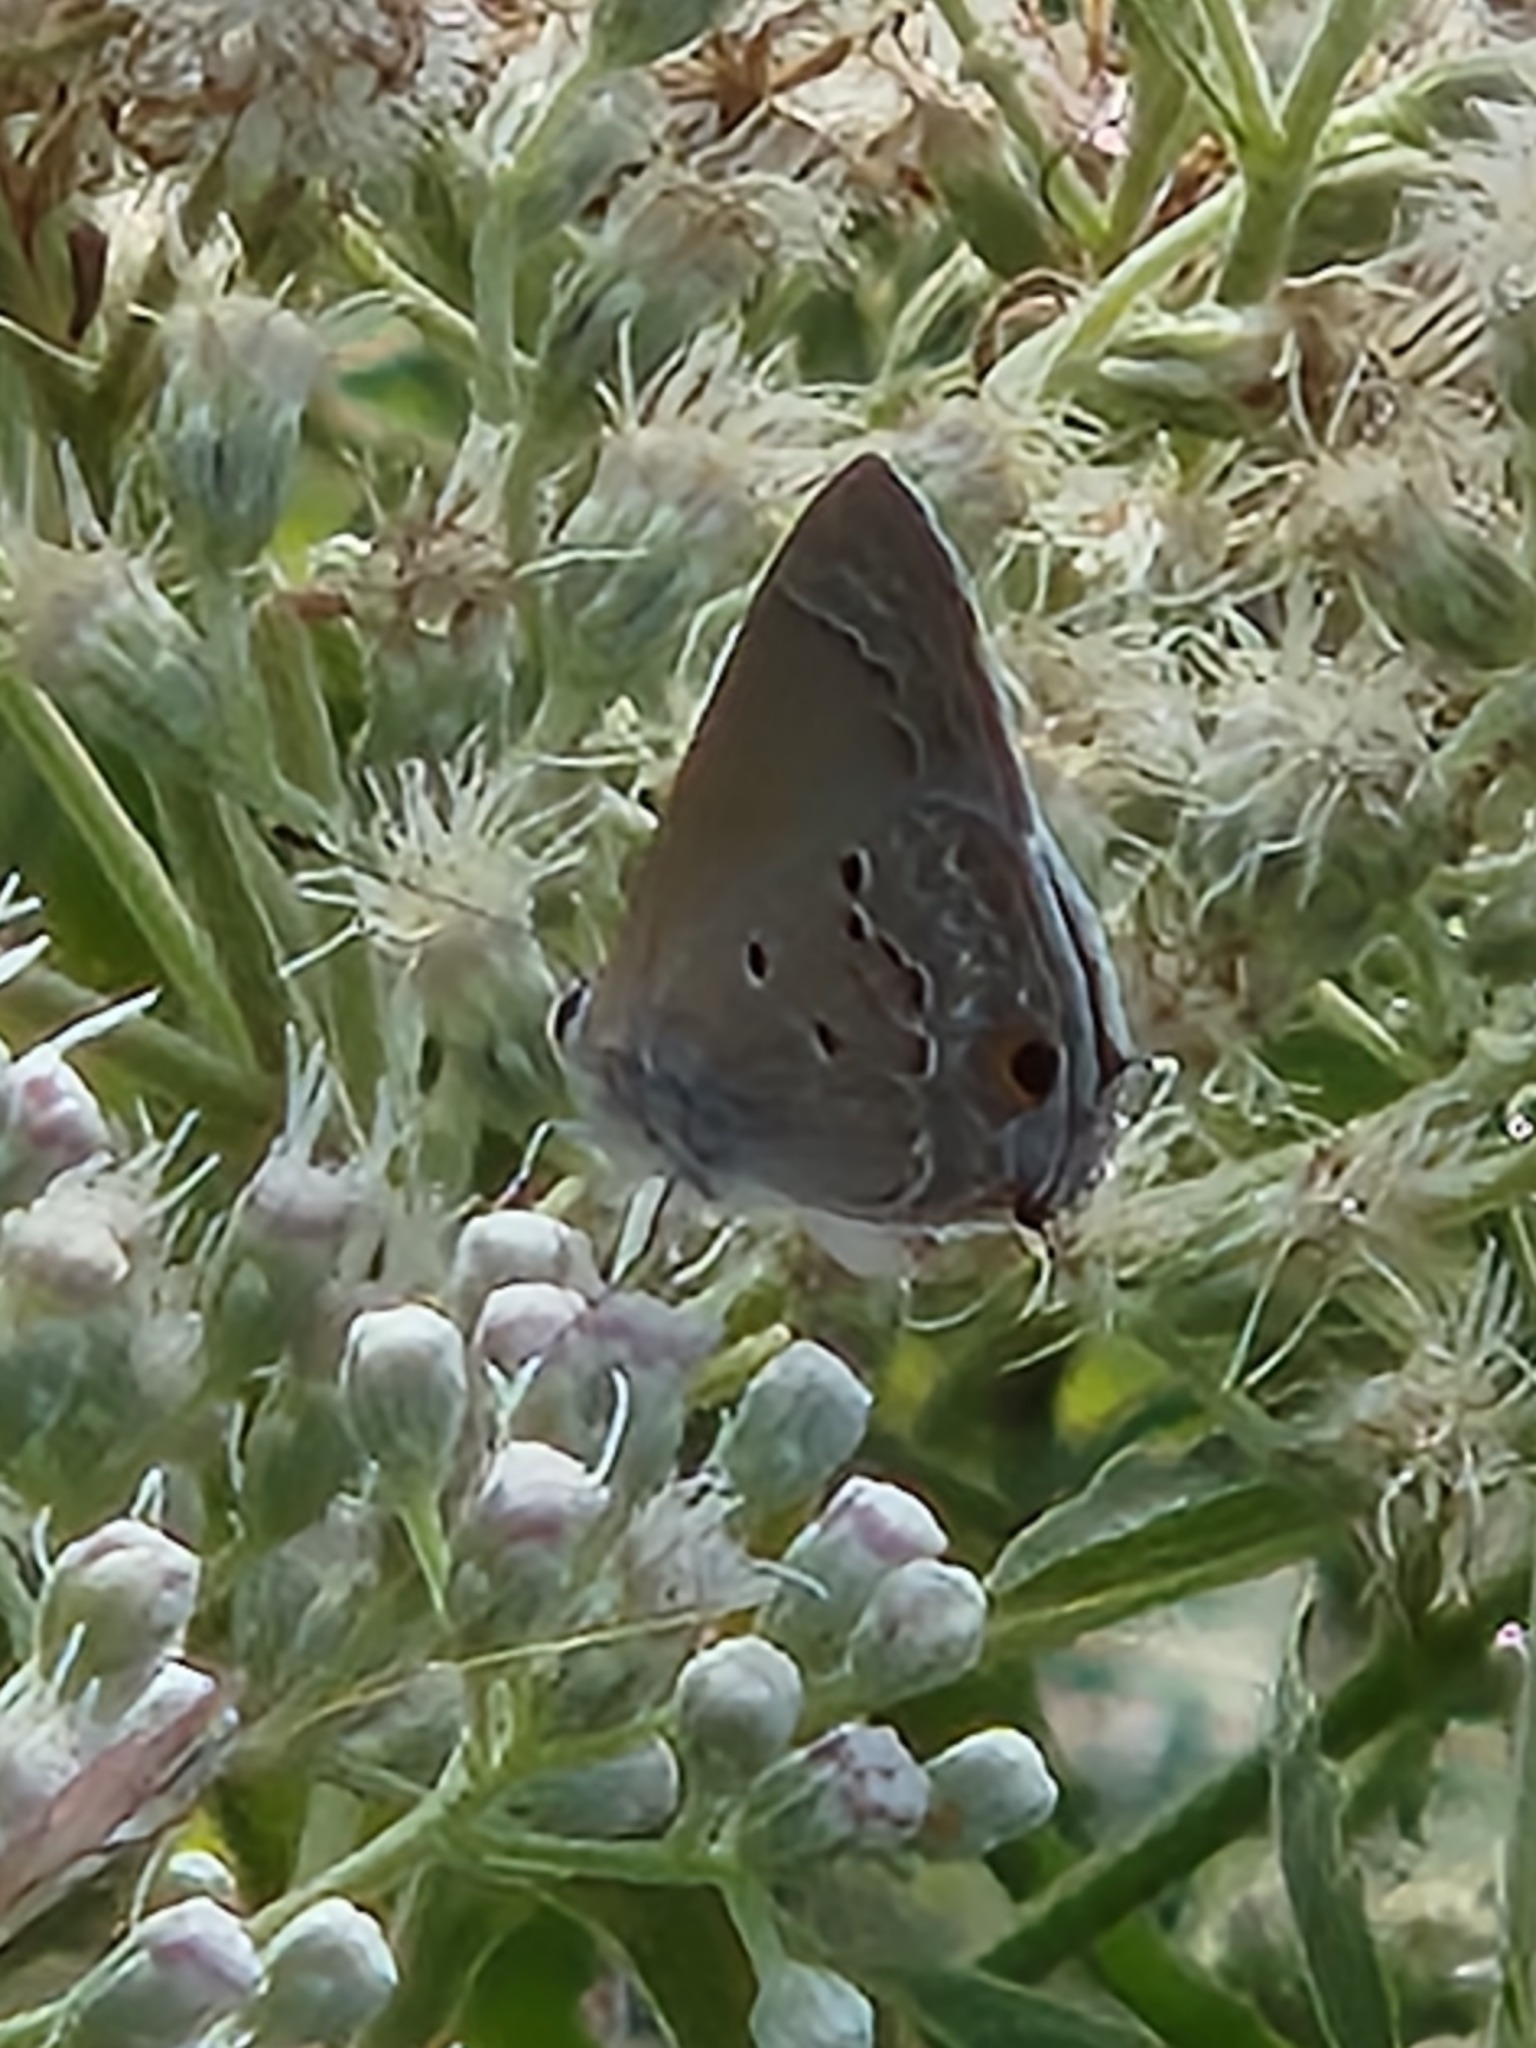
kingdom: Animalia
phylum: Arthropoda
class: Insecta
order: Lepidoptera
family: Lycaenidae
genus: Callicista
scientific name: Callicista columella
